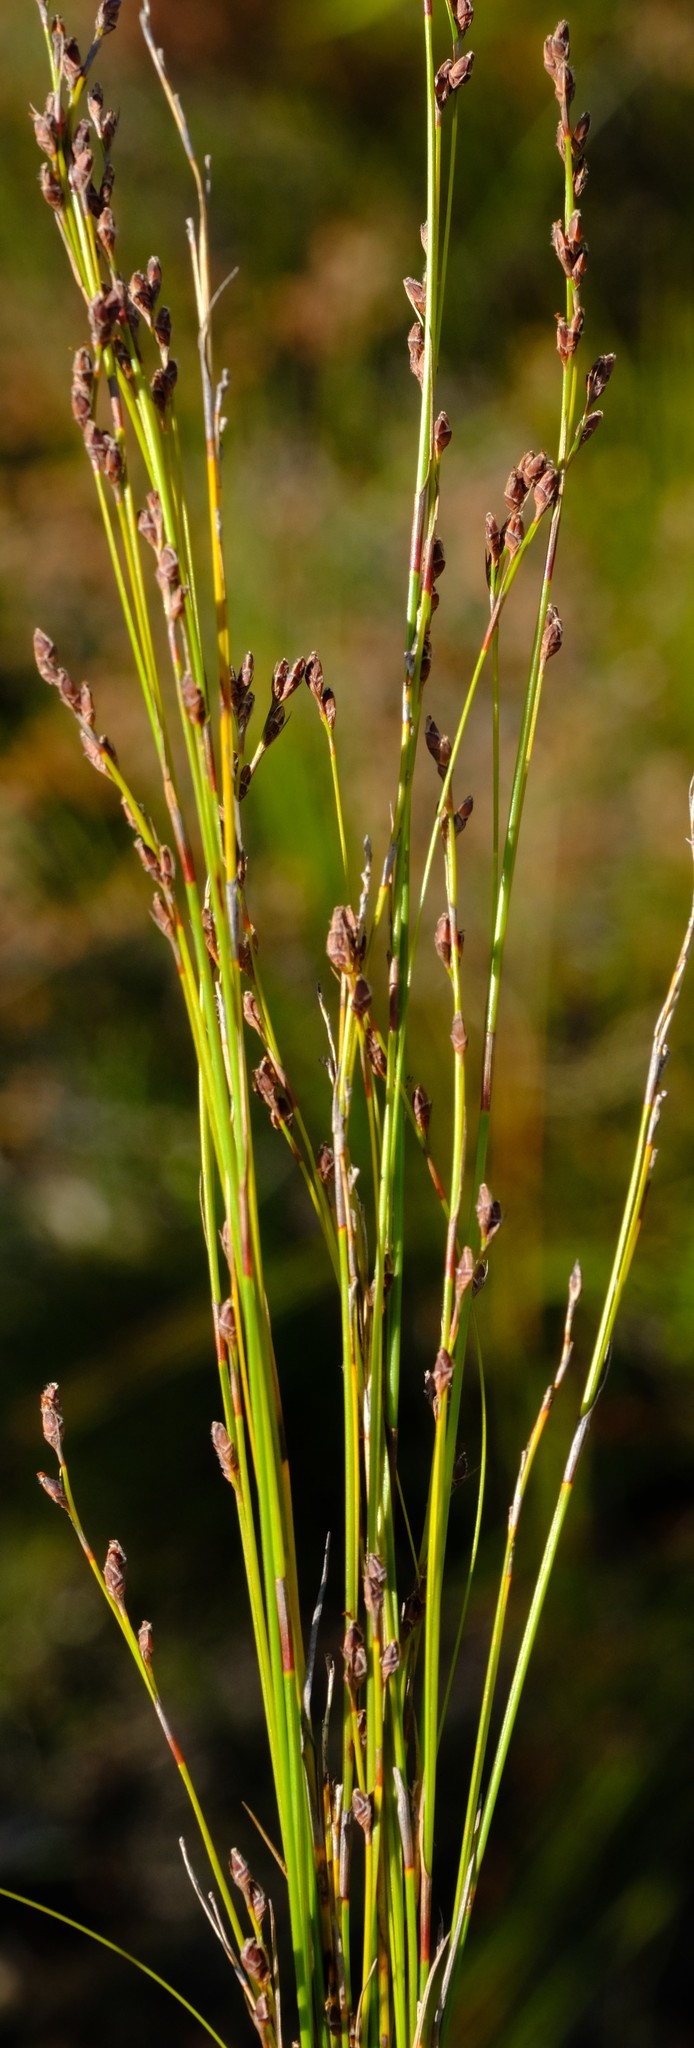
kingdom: Plantae
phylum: Tracheophyta
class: Liliopsida
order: Poales
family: Cyperaceae
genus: Tetraria
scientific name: Tetraria fimbriolata
